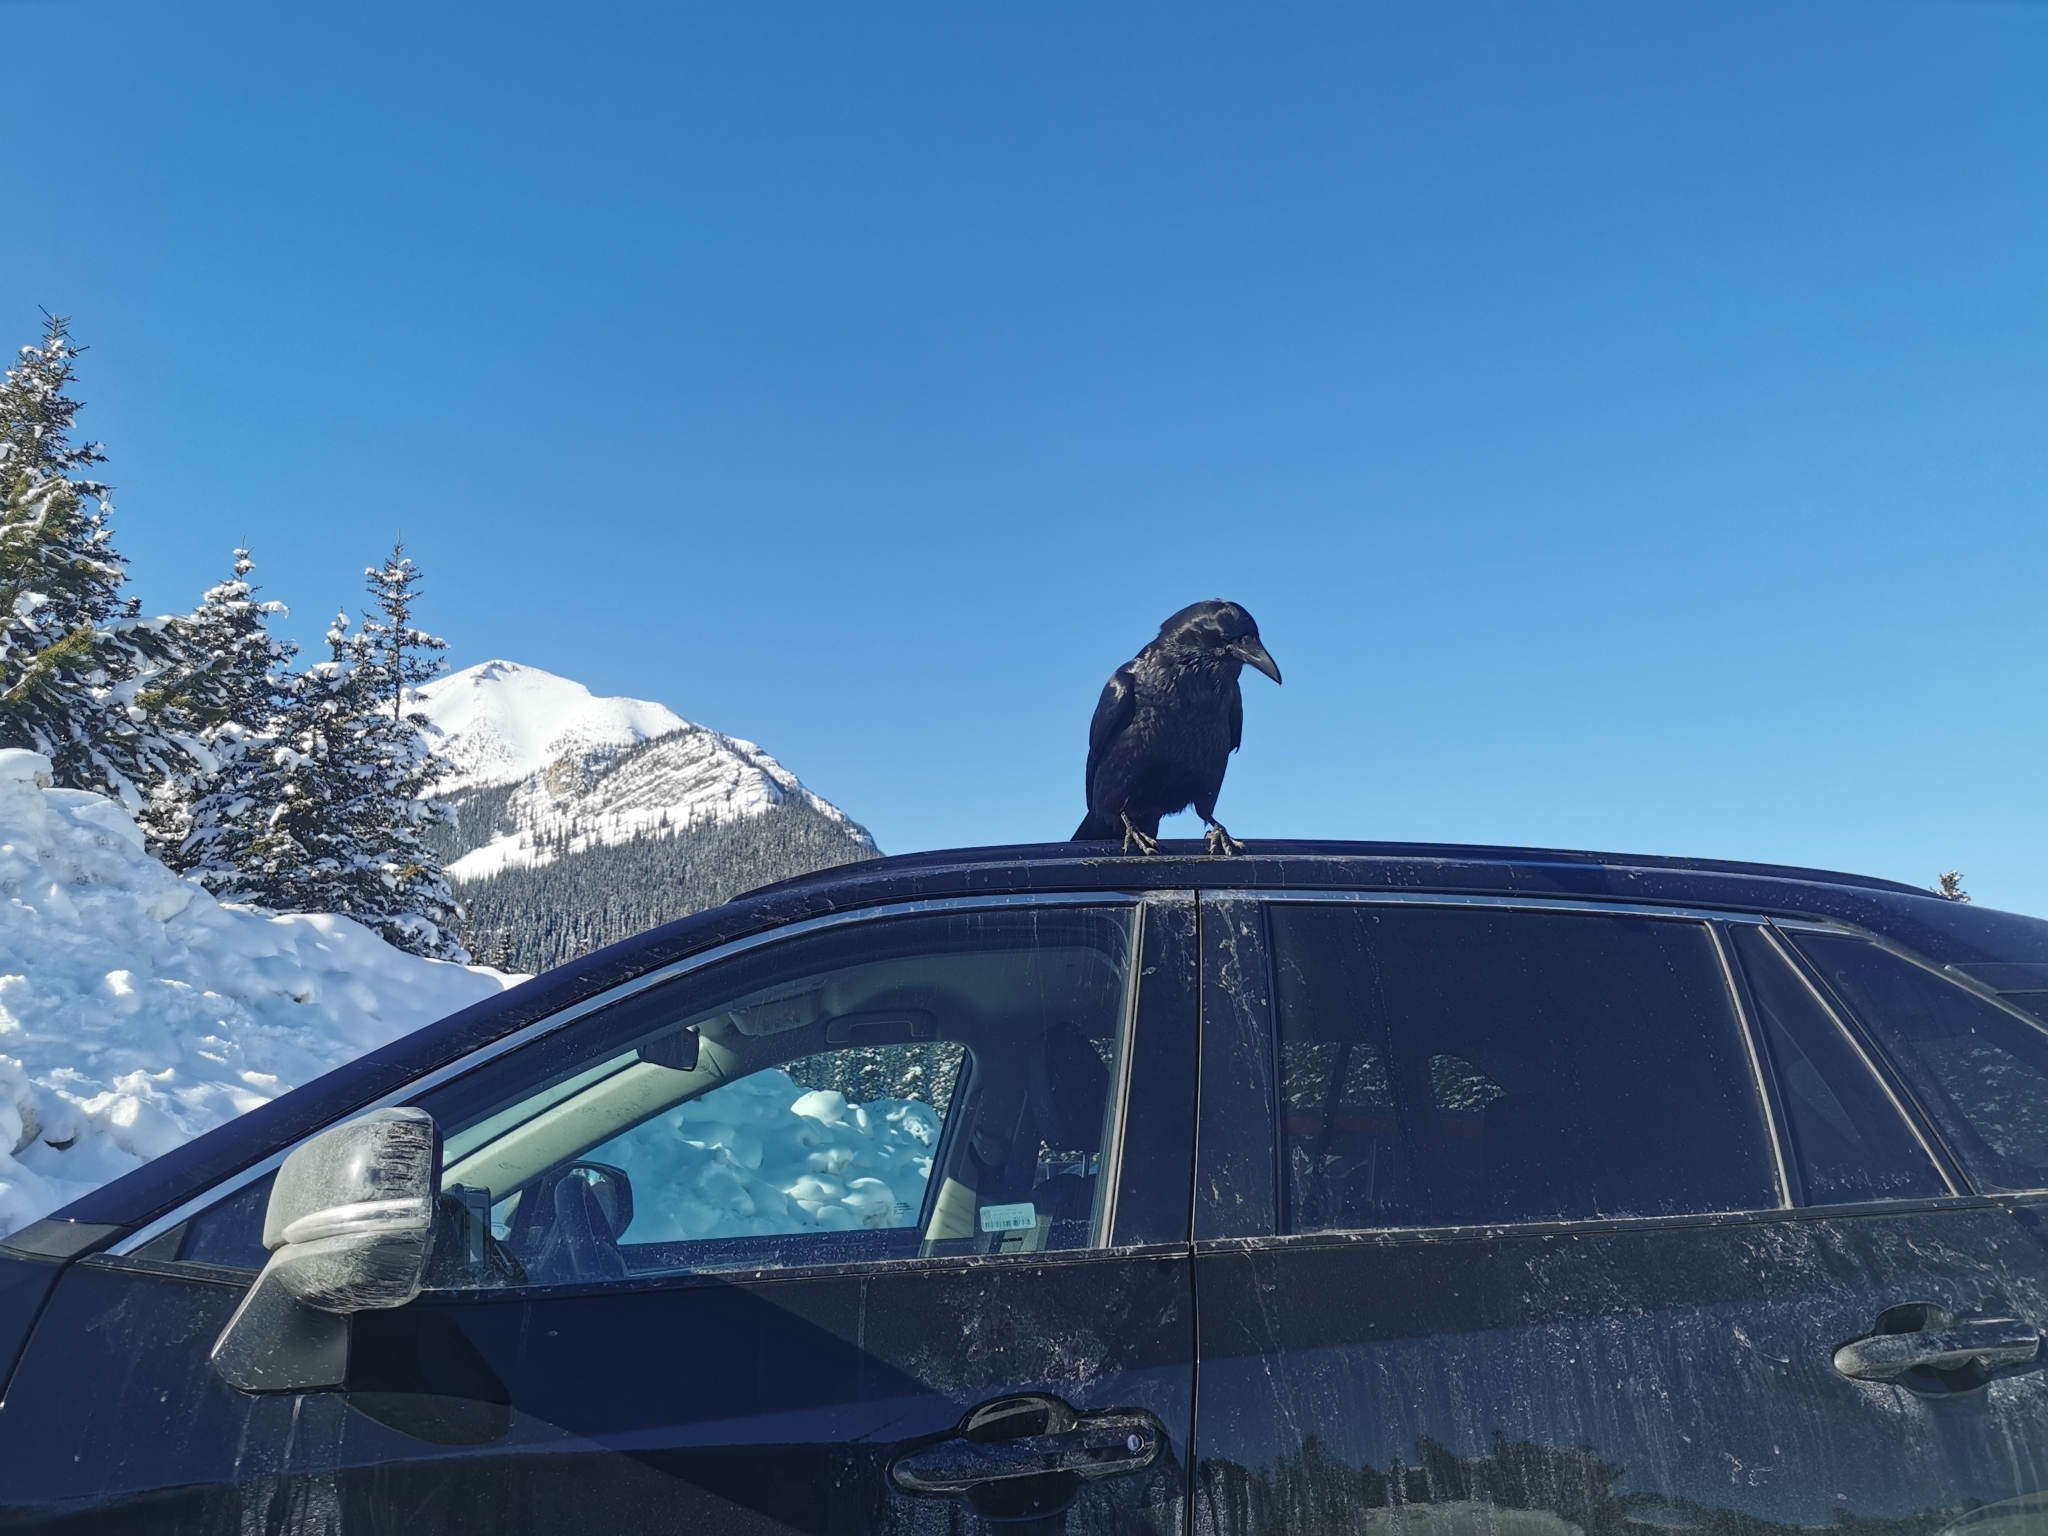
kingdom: Animalia
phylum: Chordata
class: Aves
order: Passeriformes
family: Corvidae
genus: Corvus
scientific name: Corvus corax
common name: Common raven
